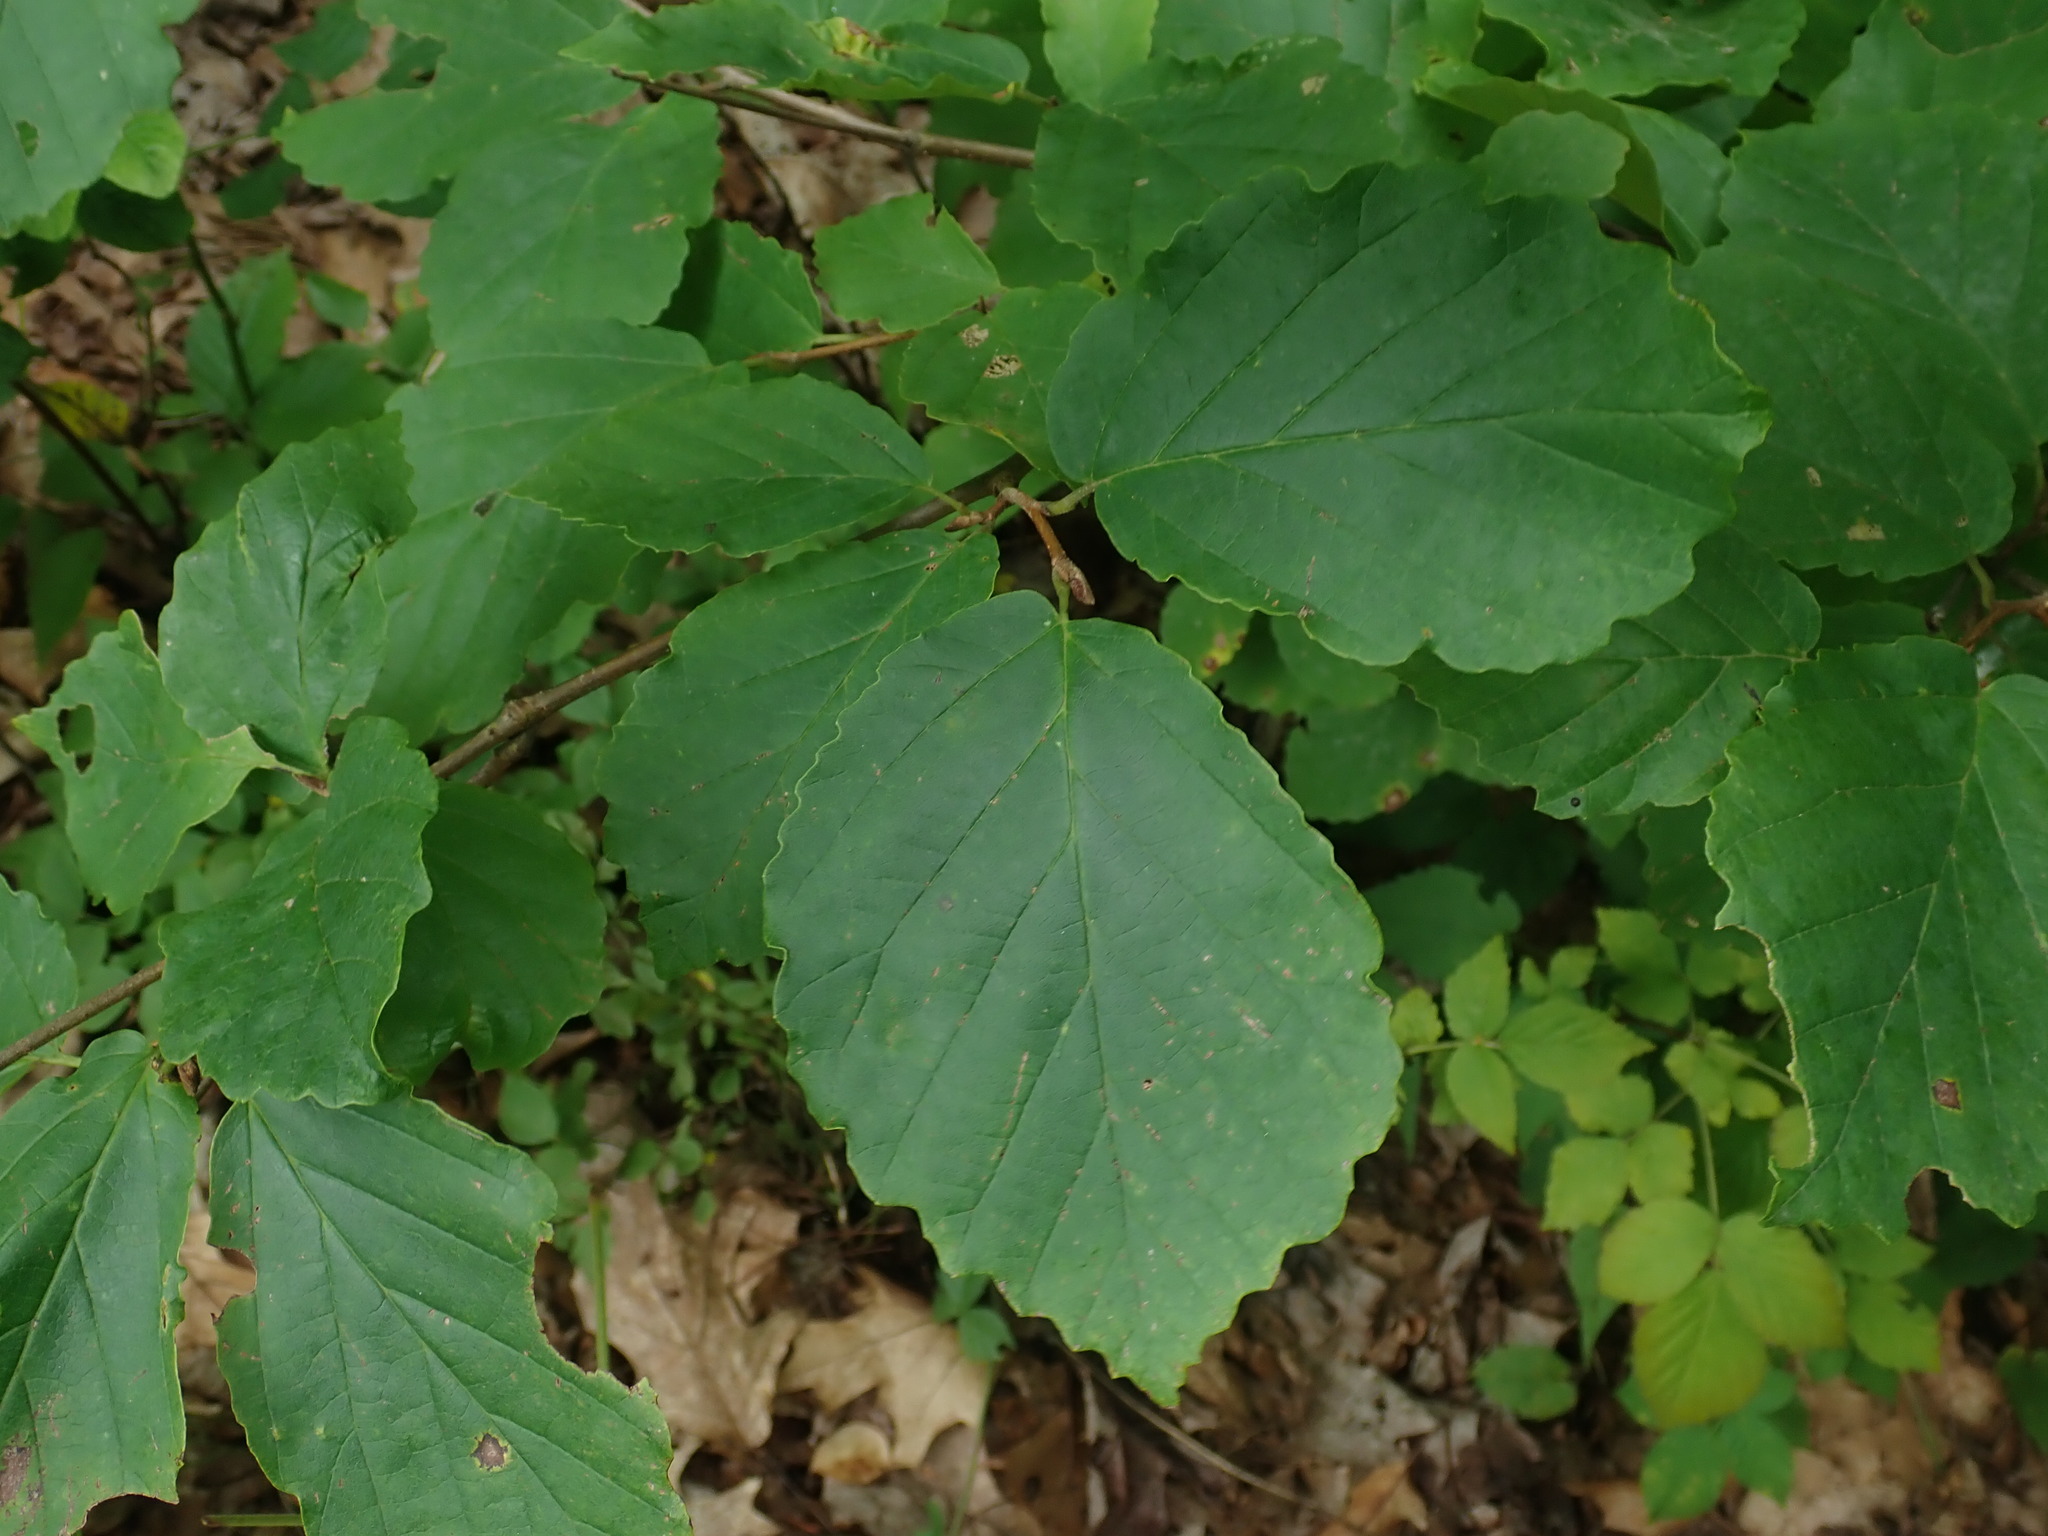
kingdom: Plantae
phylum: Tracheophyta
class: Magnoliopsida
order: Saxifragales
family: Hamamelidaceae
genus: Hamamelis
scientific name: Hamamelis virginiana
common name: Witch-hazel
